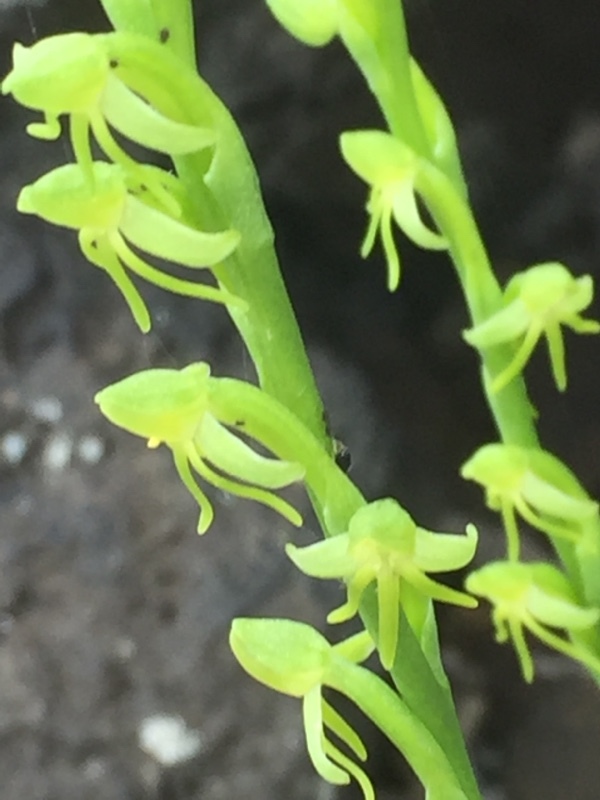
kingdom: Plantae
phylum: Tracheophyta
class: Liliopsida
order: Asparagales
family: Orchidaceae
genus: Habenaria
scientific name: Habenaria tridactylites
